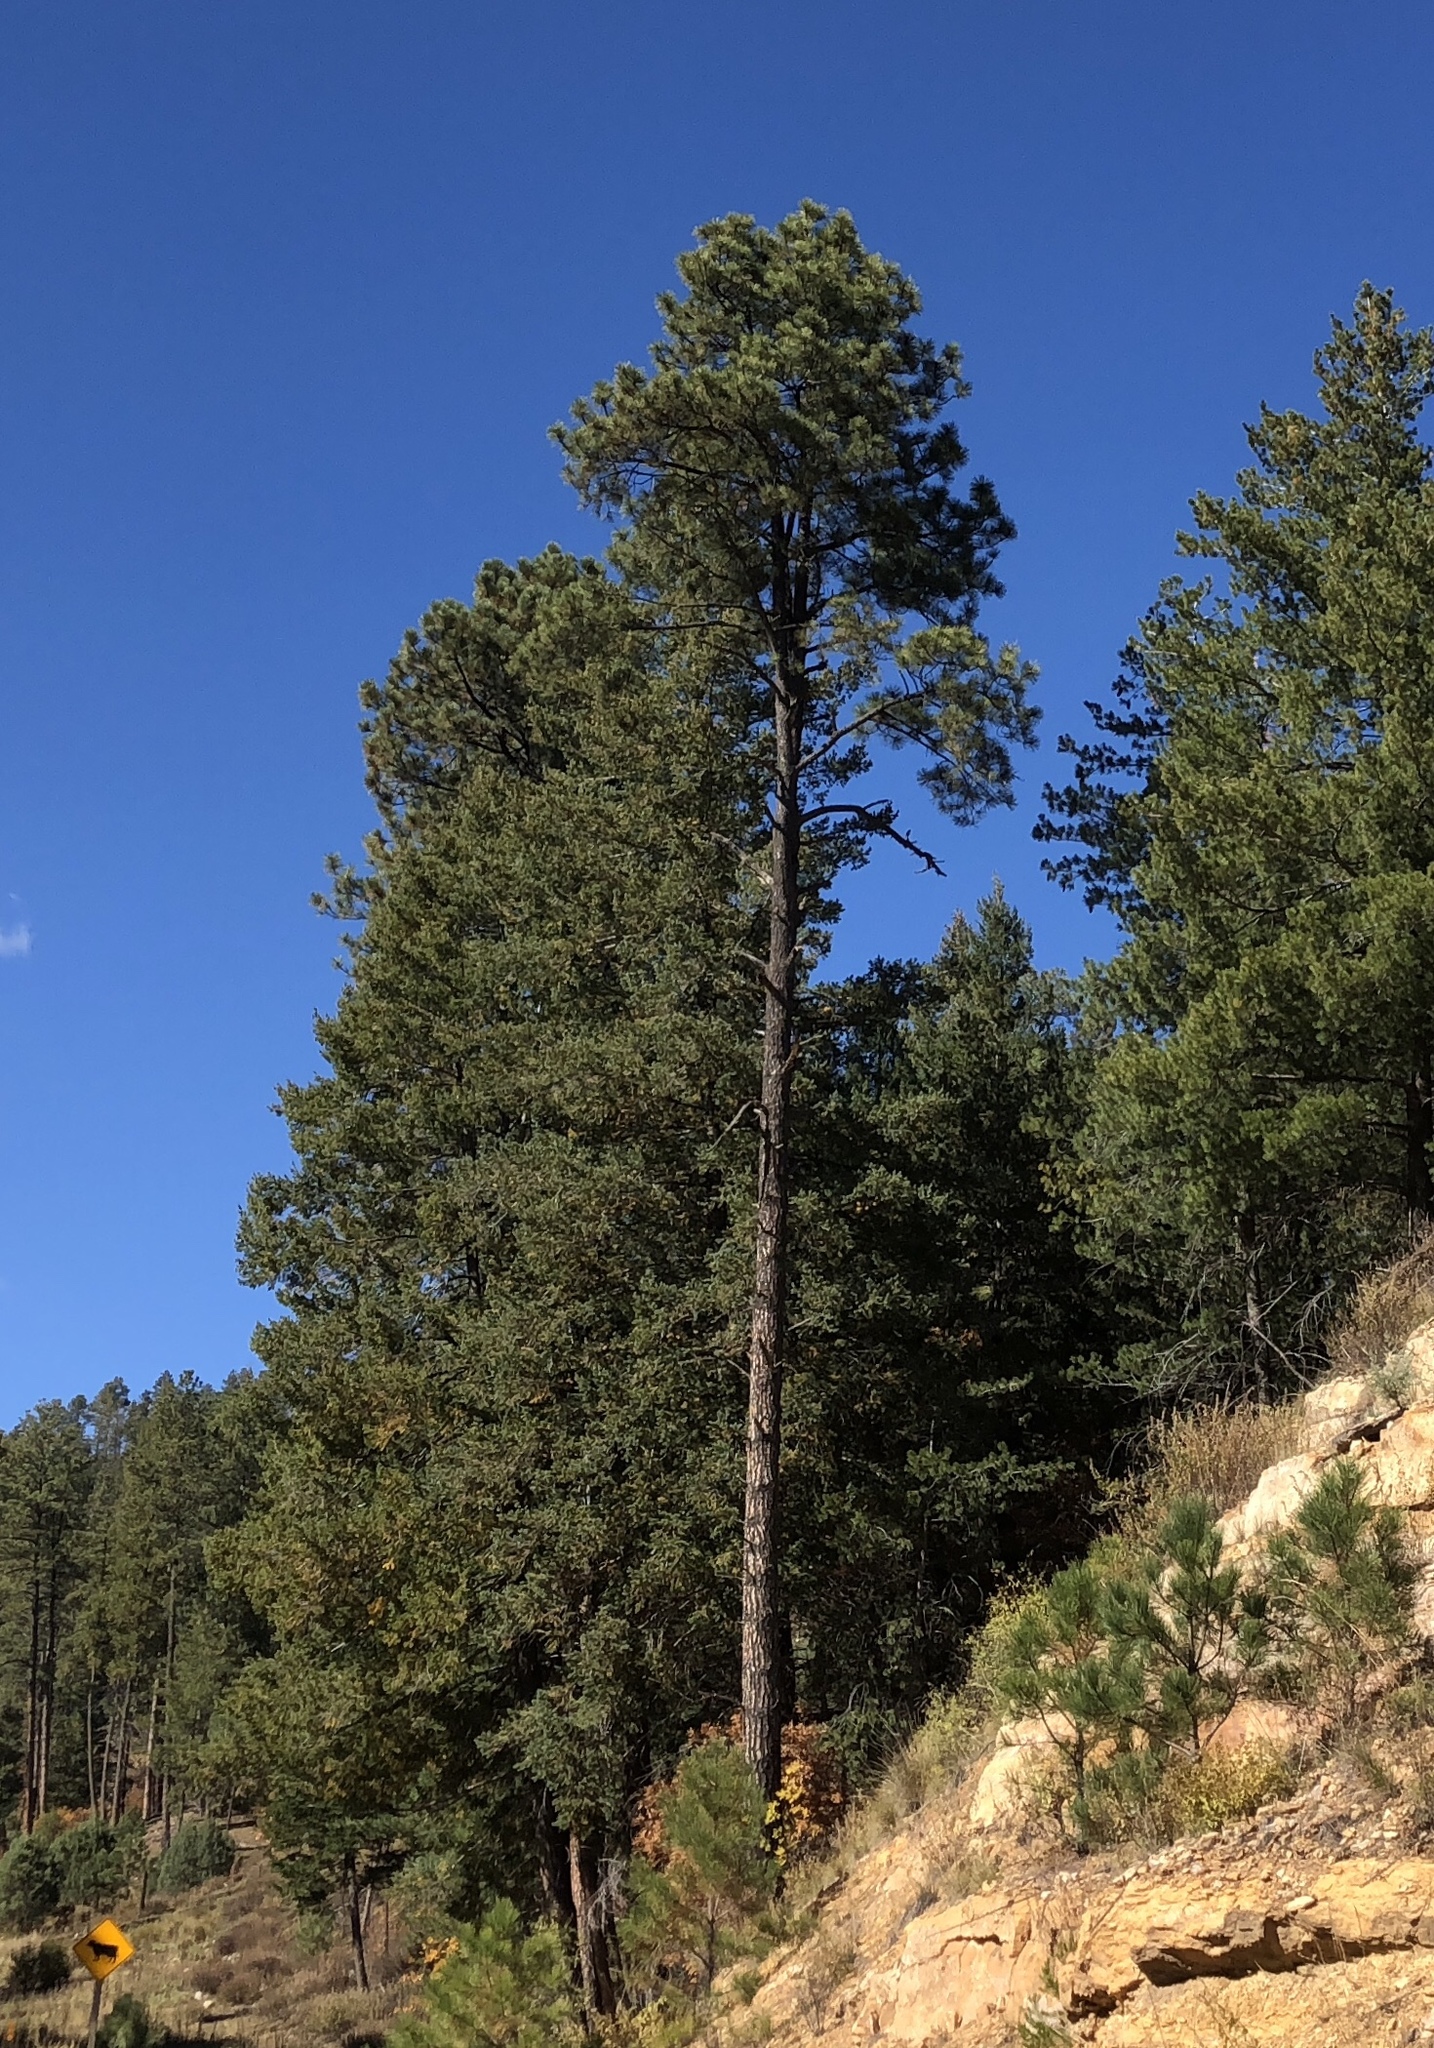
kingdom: Plantae
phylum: Tracheophyta
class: Pinopsida
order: Pinales
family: Pinaceae
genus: Pinus
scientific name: Pinus ponderosa
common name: Western yellow-pine
